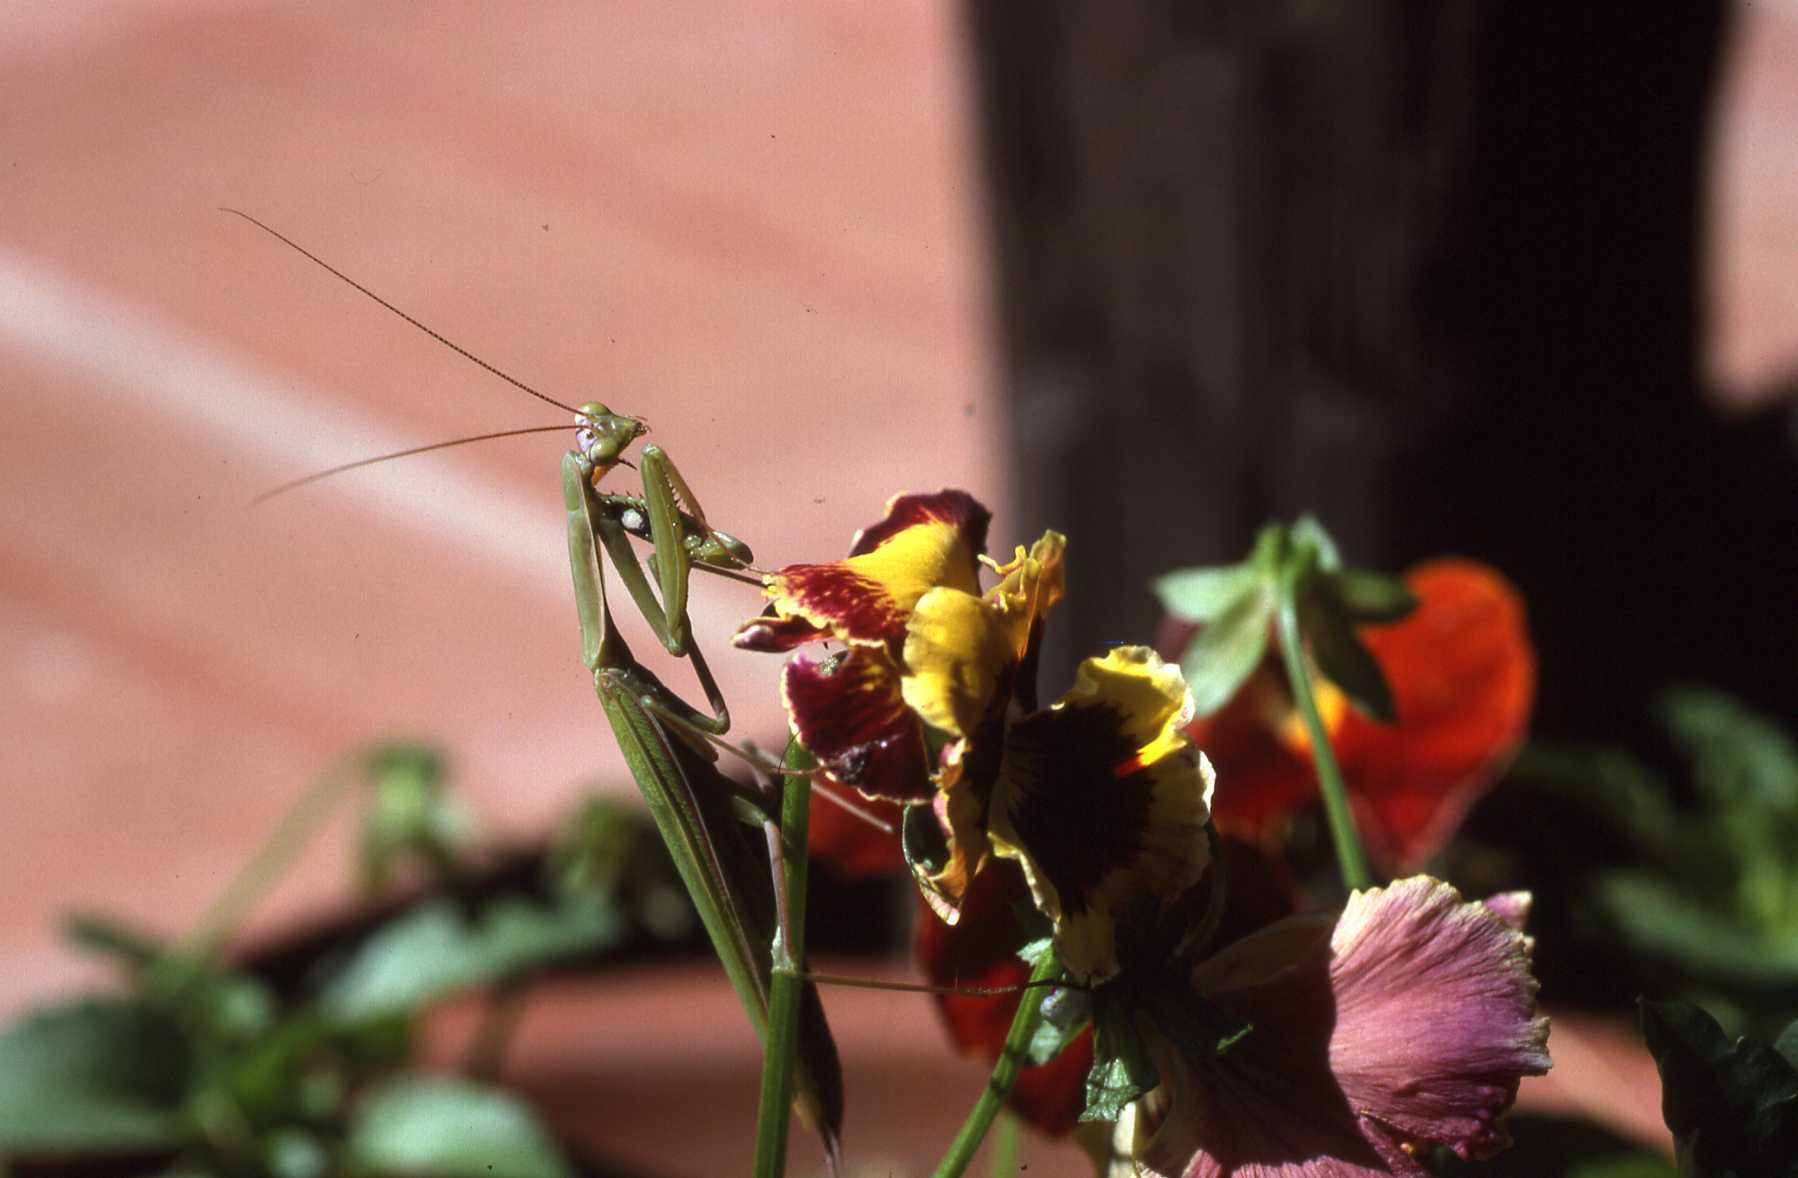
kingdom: Animalia
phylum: Arthropoda
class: Insecta
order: Mantodea
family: Mantidae
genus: Mantis
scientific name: Mantis religiosa
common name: Praying mantis
